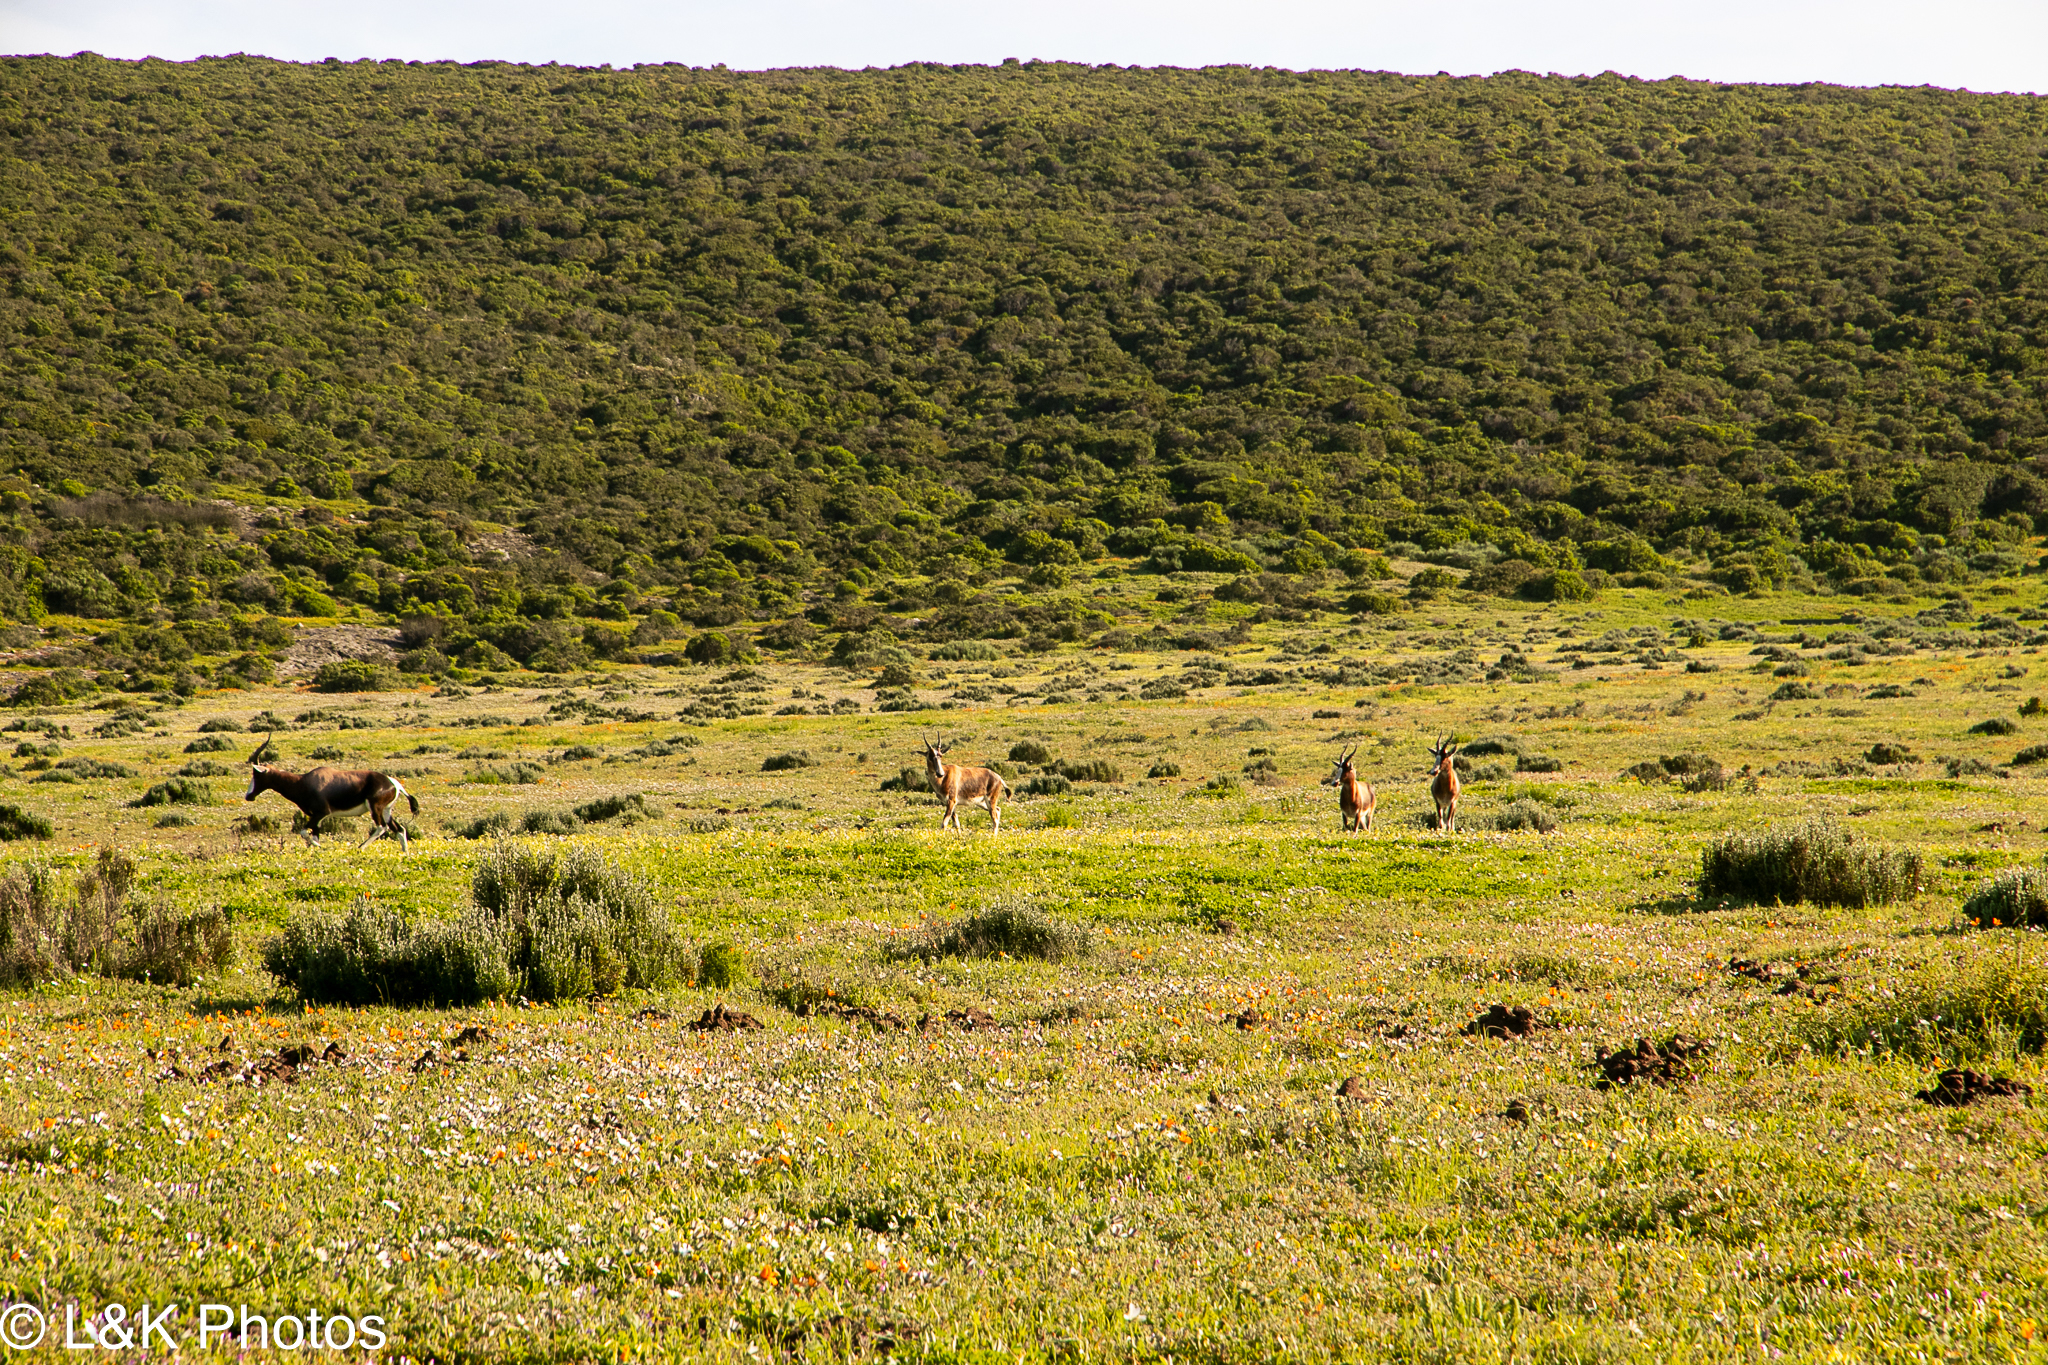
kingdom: Animalia
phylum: Chordata
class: Mammalia
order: Artiodactyla
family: Bovidae
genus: Damaliscus
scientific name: Damaliscus pygargus
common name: Bontebok
